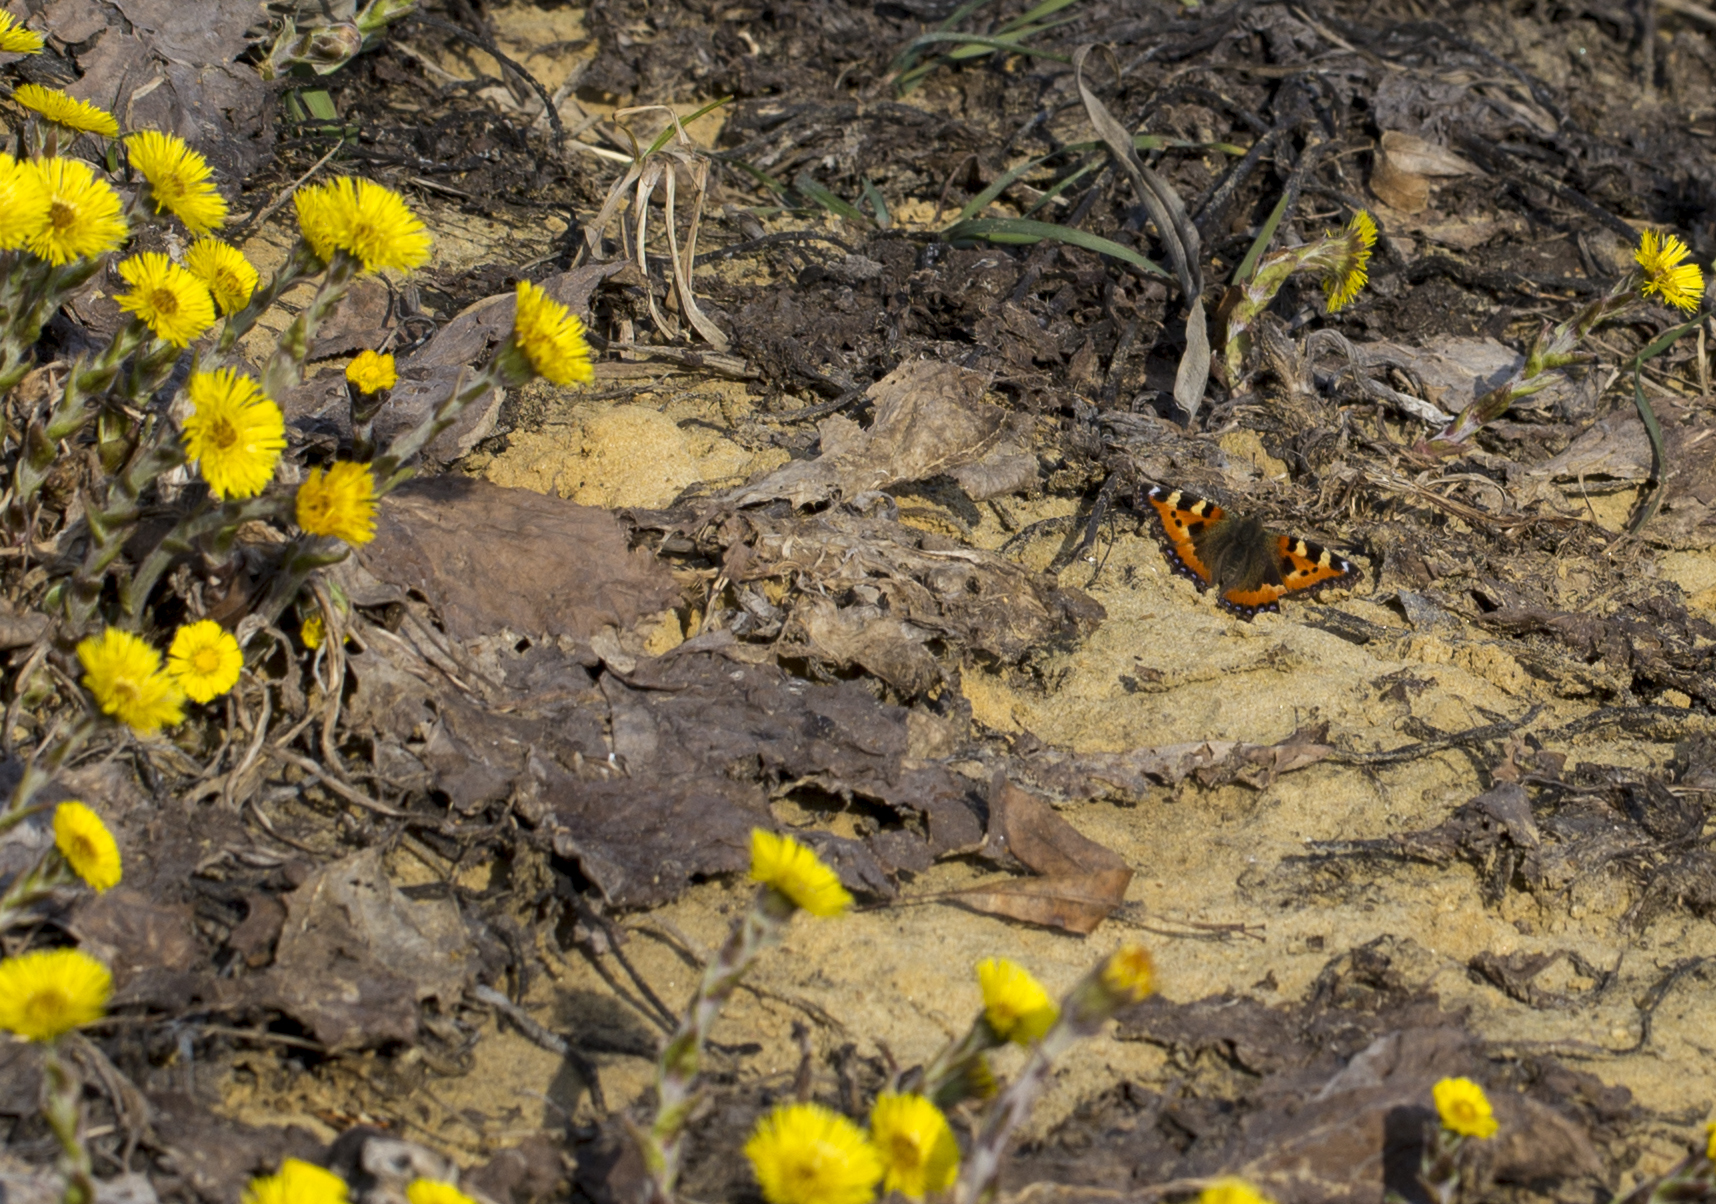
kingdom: Animalia
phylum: Arthropoda
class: Insecta
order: Lepidoptera
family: Nymphalidae
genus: Aglais
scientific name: Aglais urticae
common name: Small tortoiseshell
